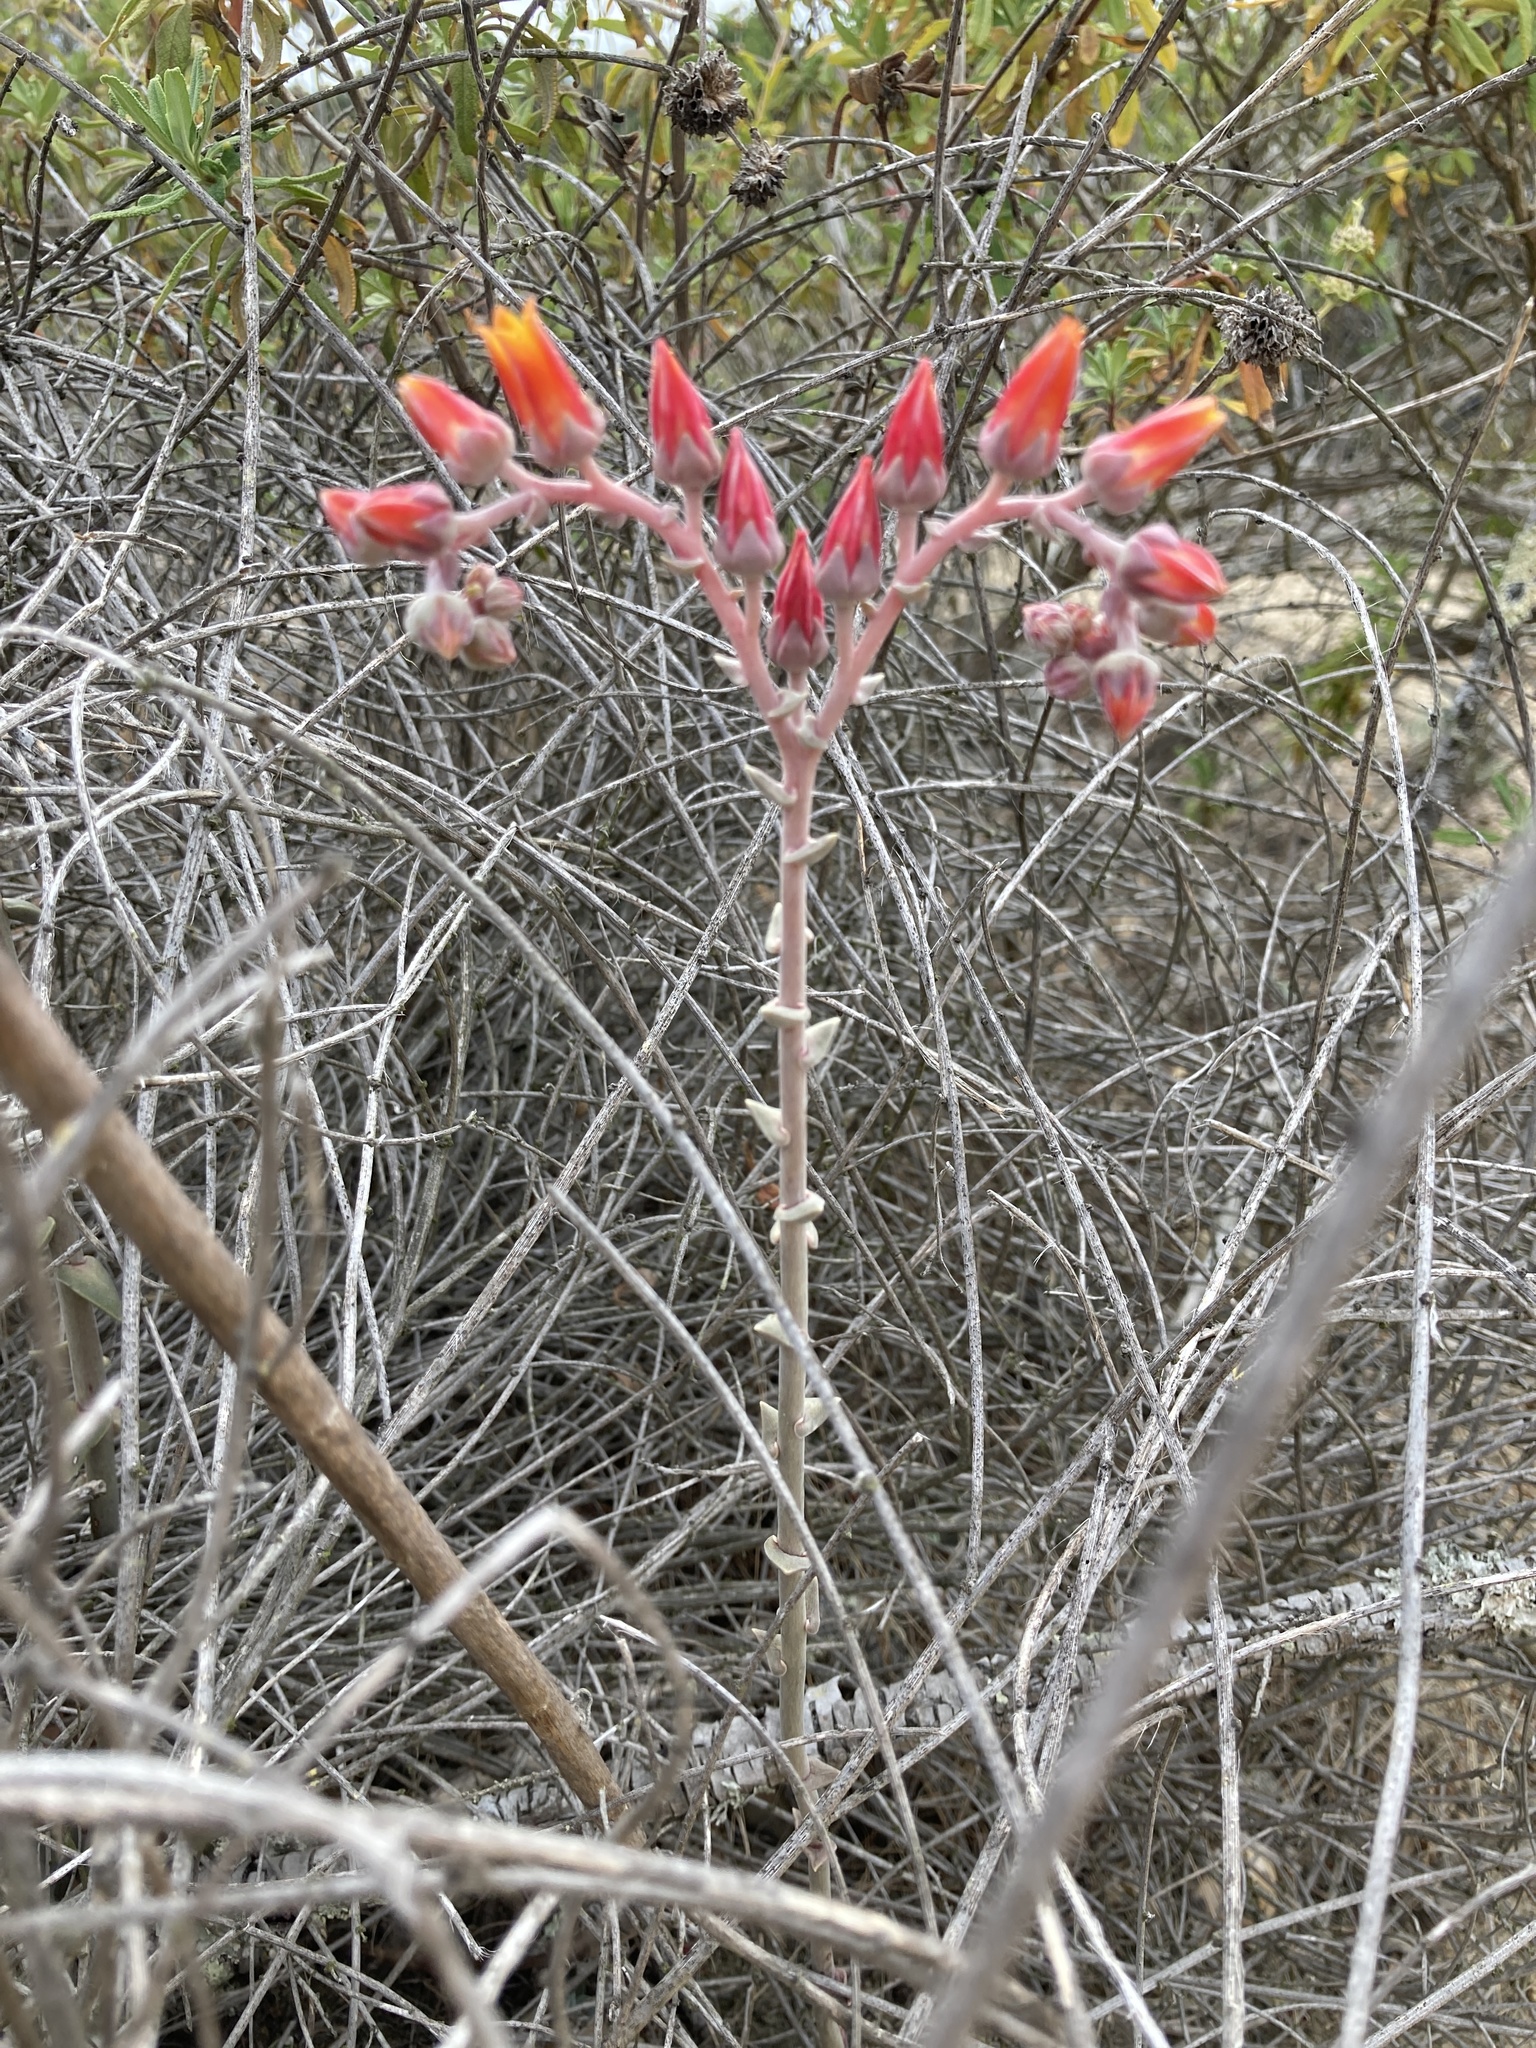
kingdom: Plantae
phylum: Tracheophyta
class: Magnoliopsida
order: Saxifragales
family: Crassulaceae
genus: Dudleya
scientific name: Dudleya lanceolata
